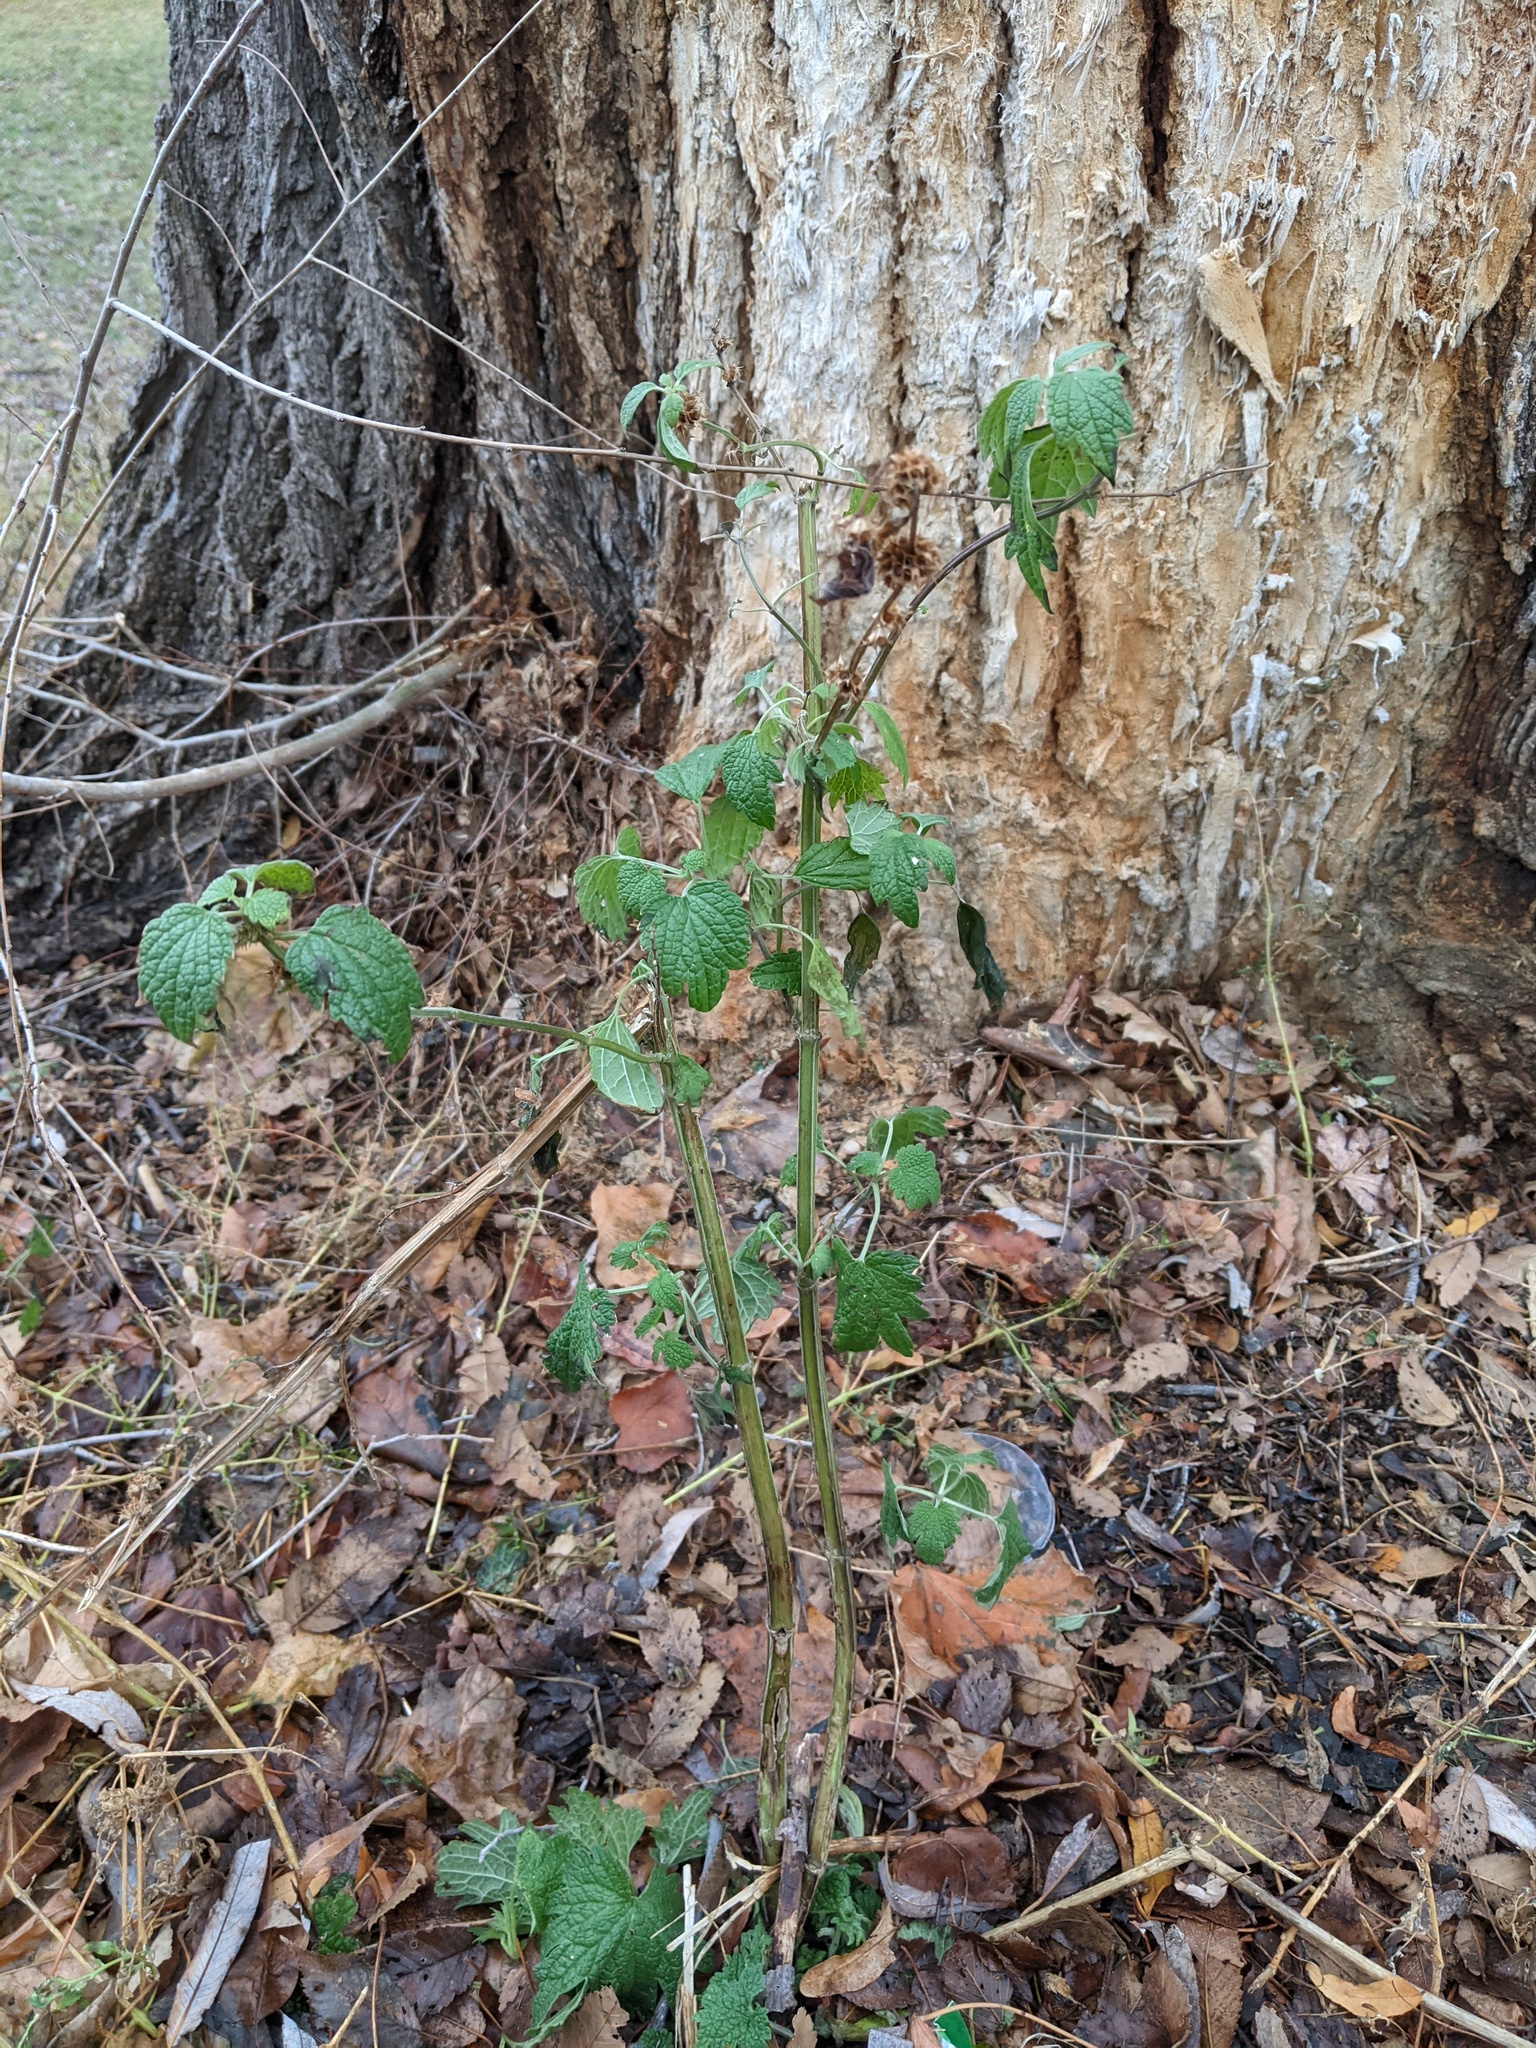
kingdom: Plantae
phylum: Tracheophyta
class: Magnoliopsida
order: Lamiales
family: Lamiaceae
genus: Leonurus
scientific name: Leonurus cardiaca
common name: Motherwort
